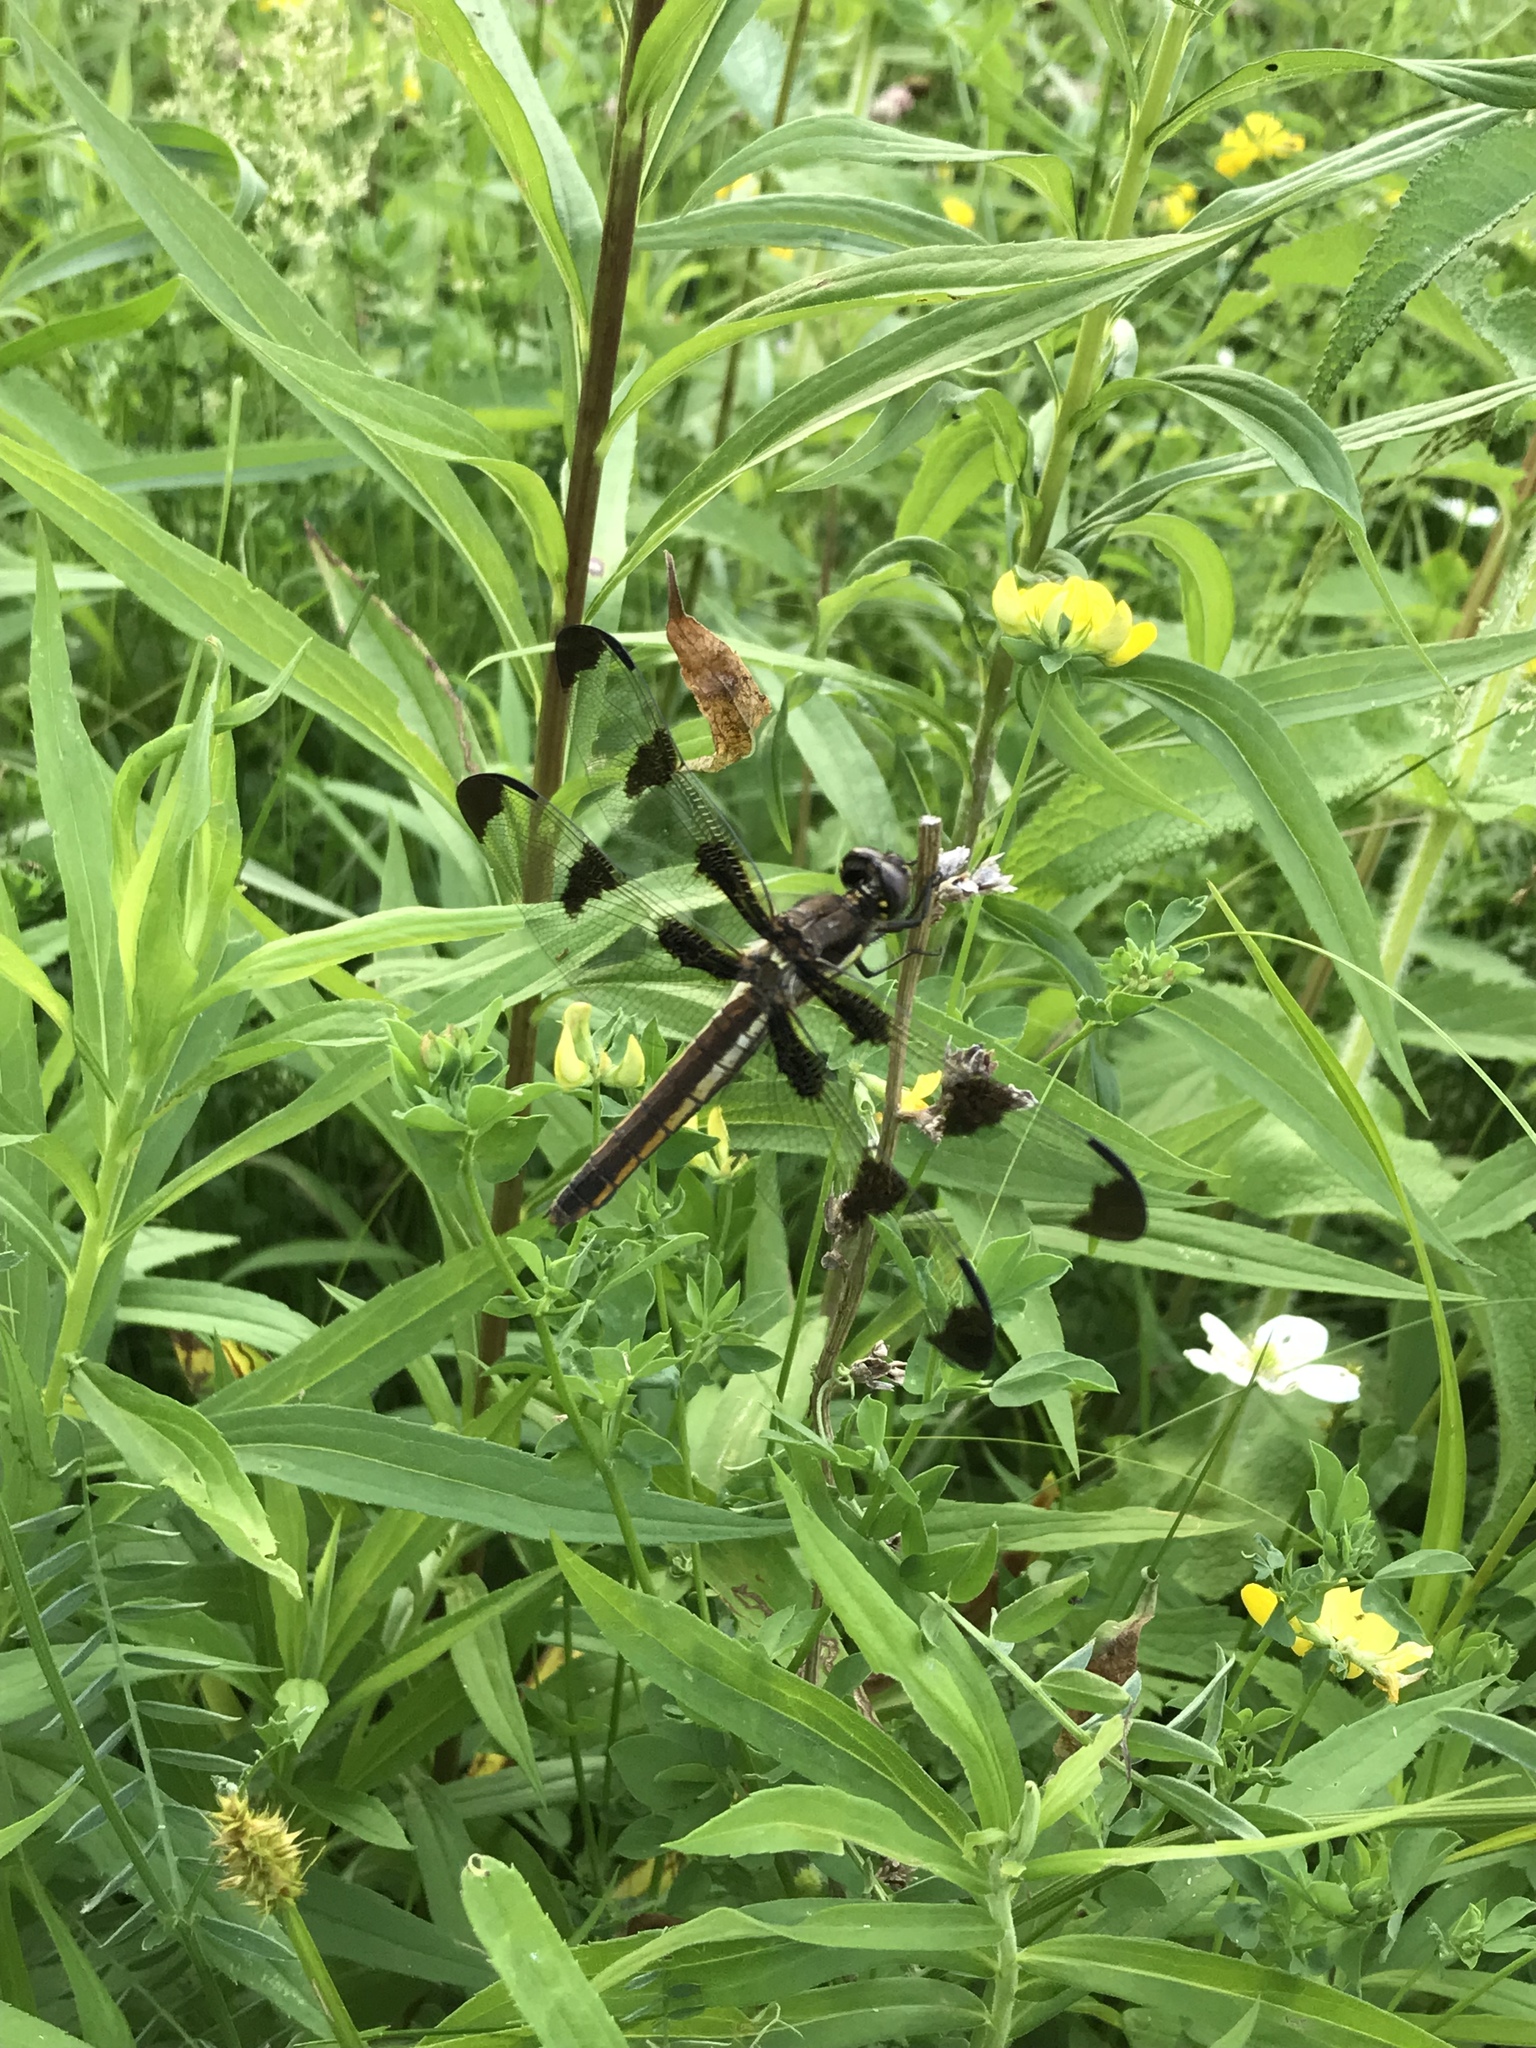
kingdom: Animalia
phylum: Arthropoda
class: Insecta
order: Odonata
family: Libellulidae
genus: Libellula
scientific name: Libellula pulchella
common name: Twelve-spotted skimmer
